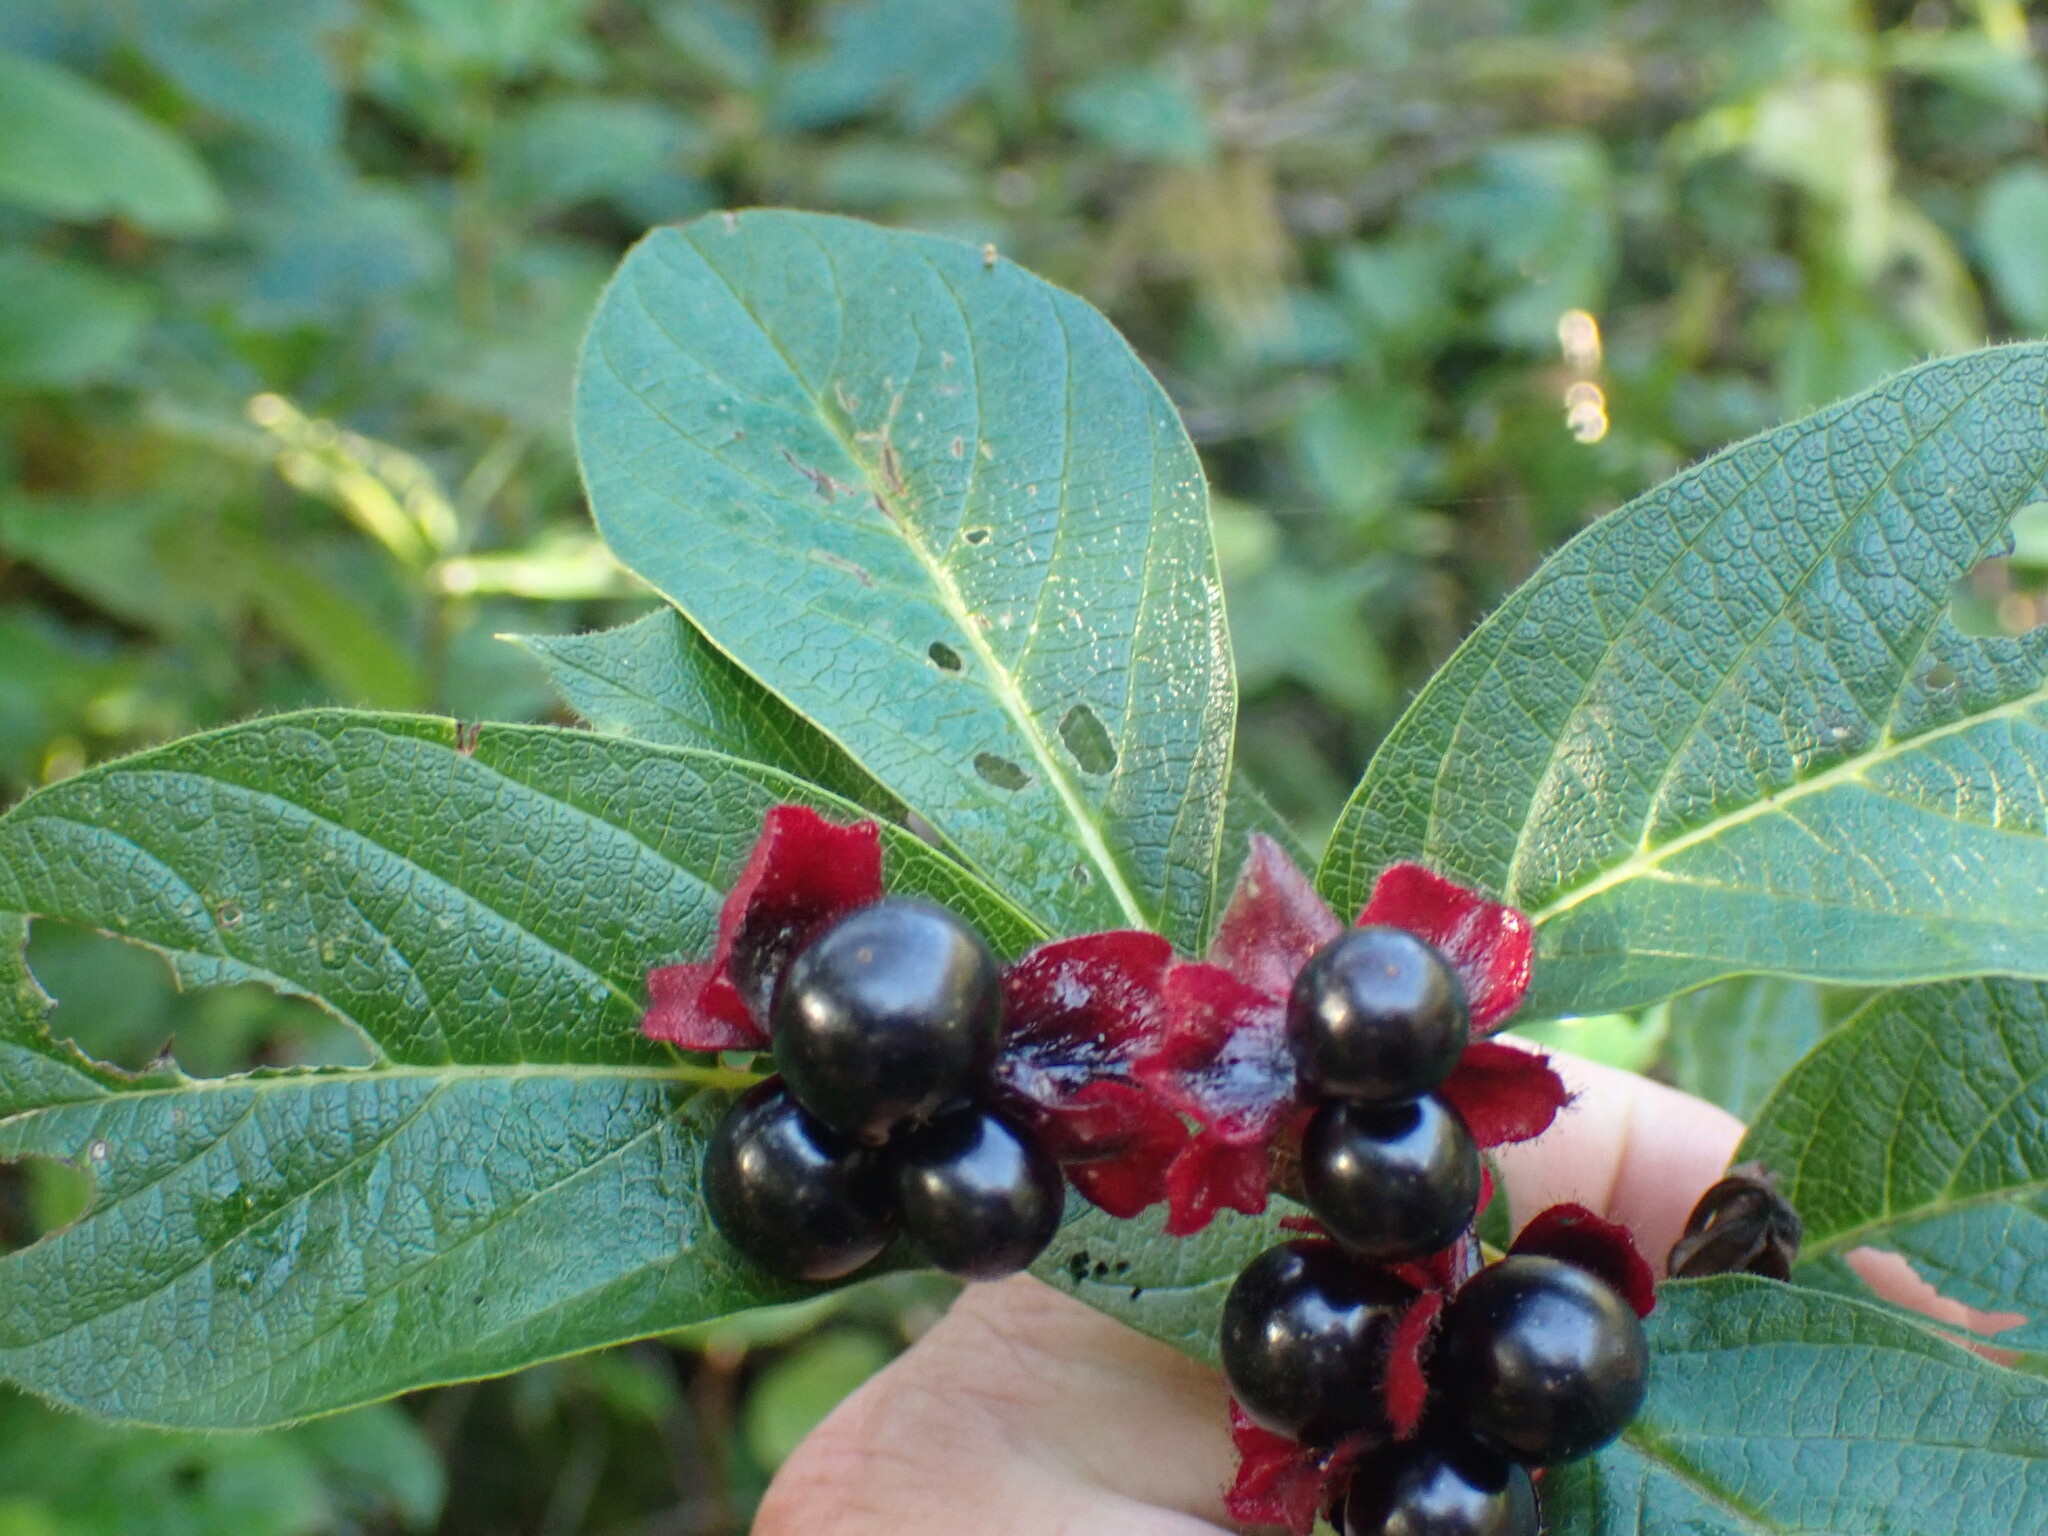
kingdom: Plantae
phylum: Tracheophyta
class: Magnoliopsida
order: Dipsacales
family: Caprifoliaceae
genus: Lonicera
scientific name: Lonicera involucrata
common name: Californian honeysuckle
